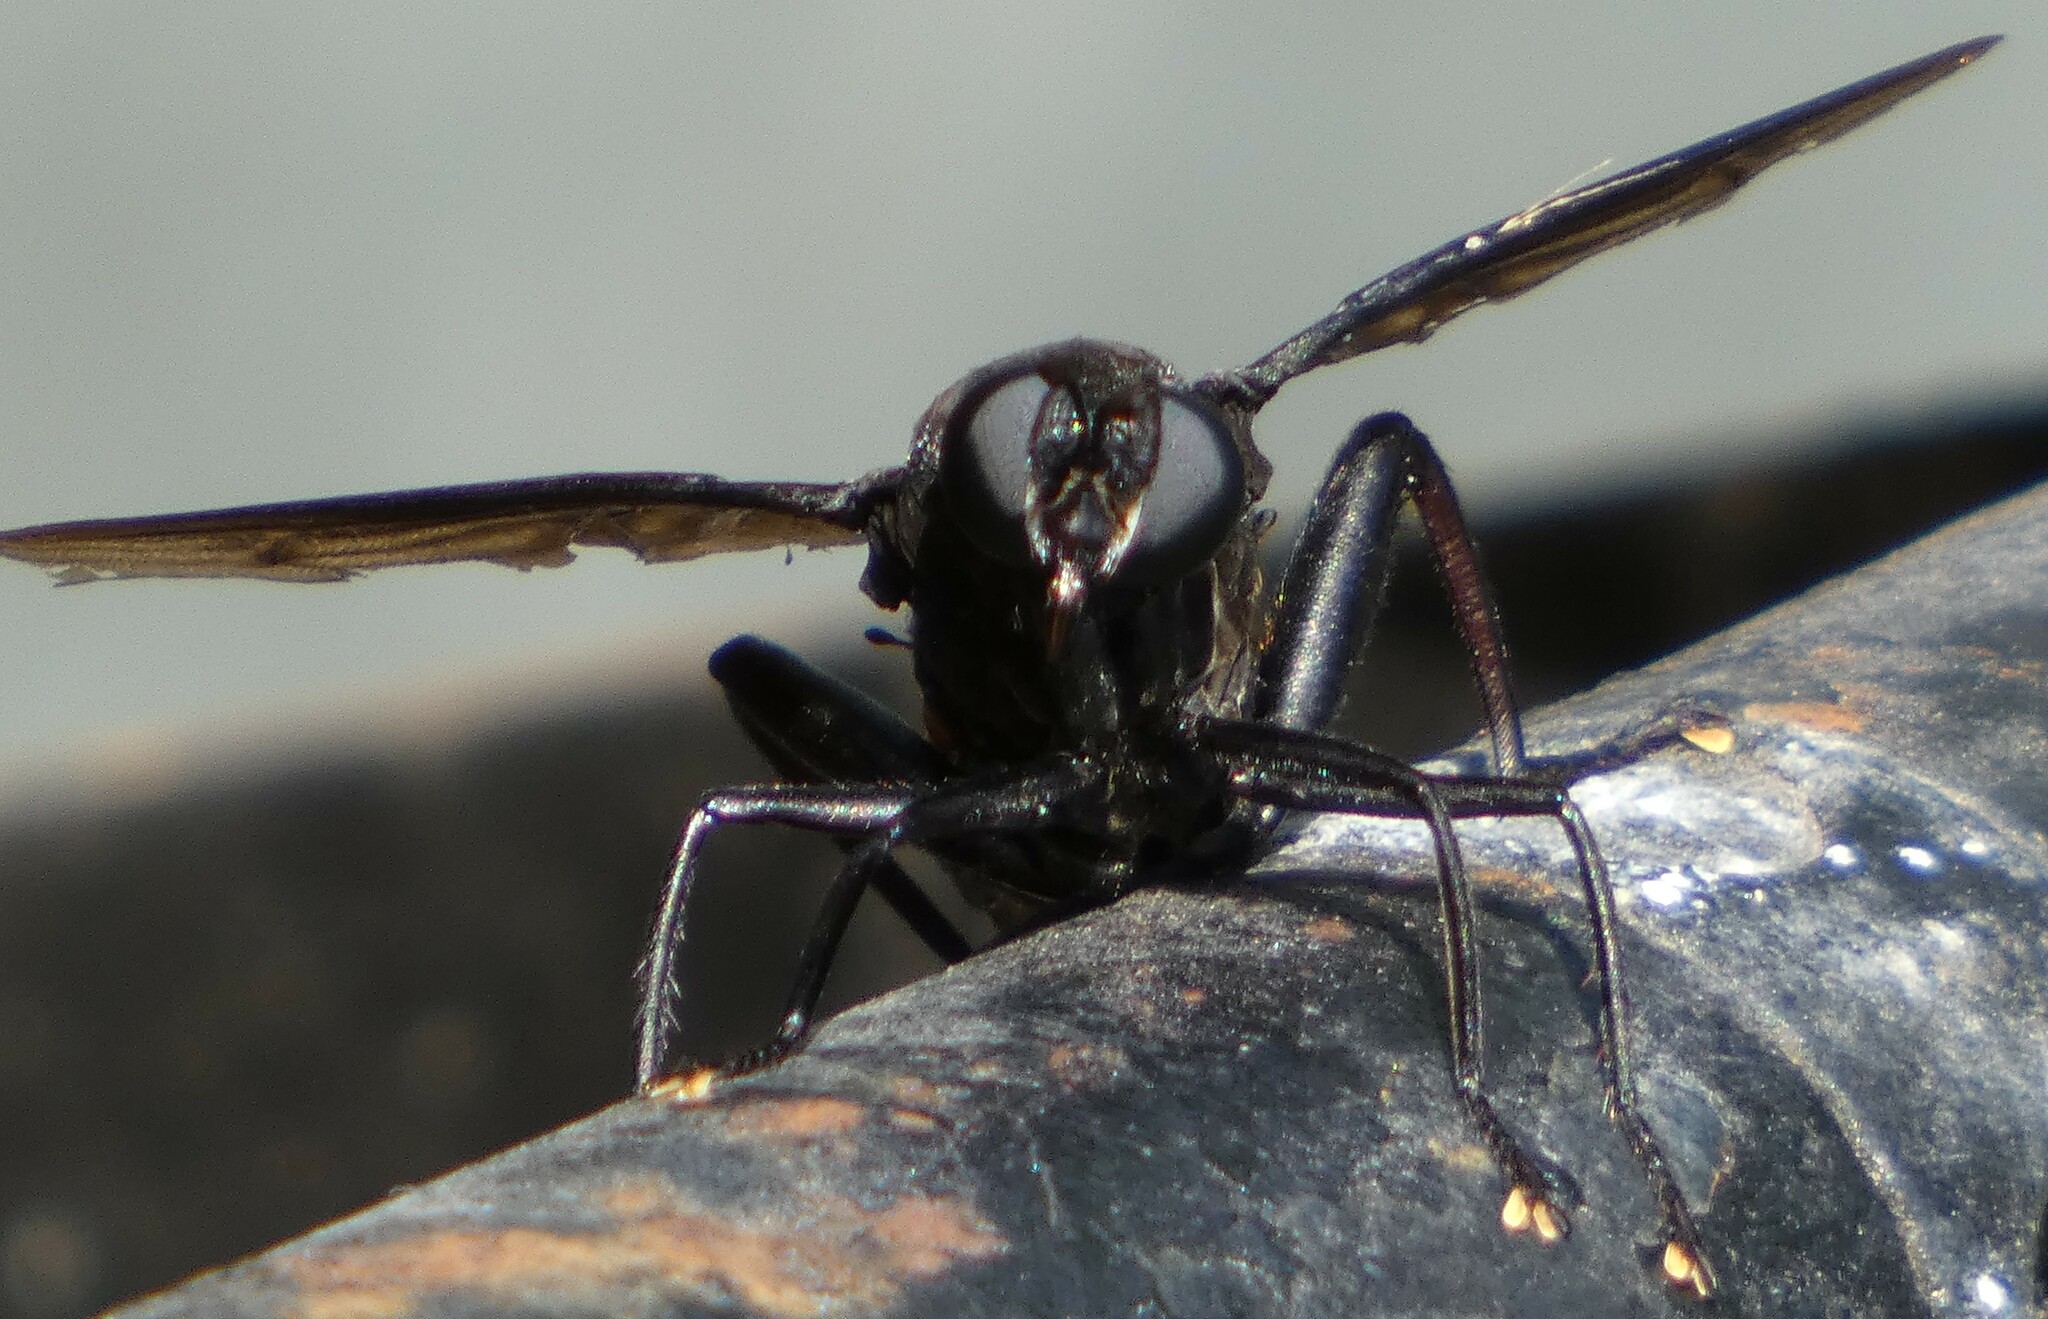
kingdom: Animalia
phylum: Arthropoda
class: Insecta
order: Diptera
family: Mydidae
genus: Mydas
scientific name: Mydas clavatus
